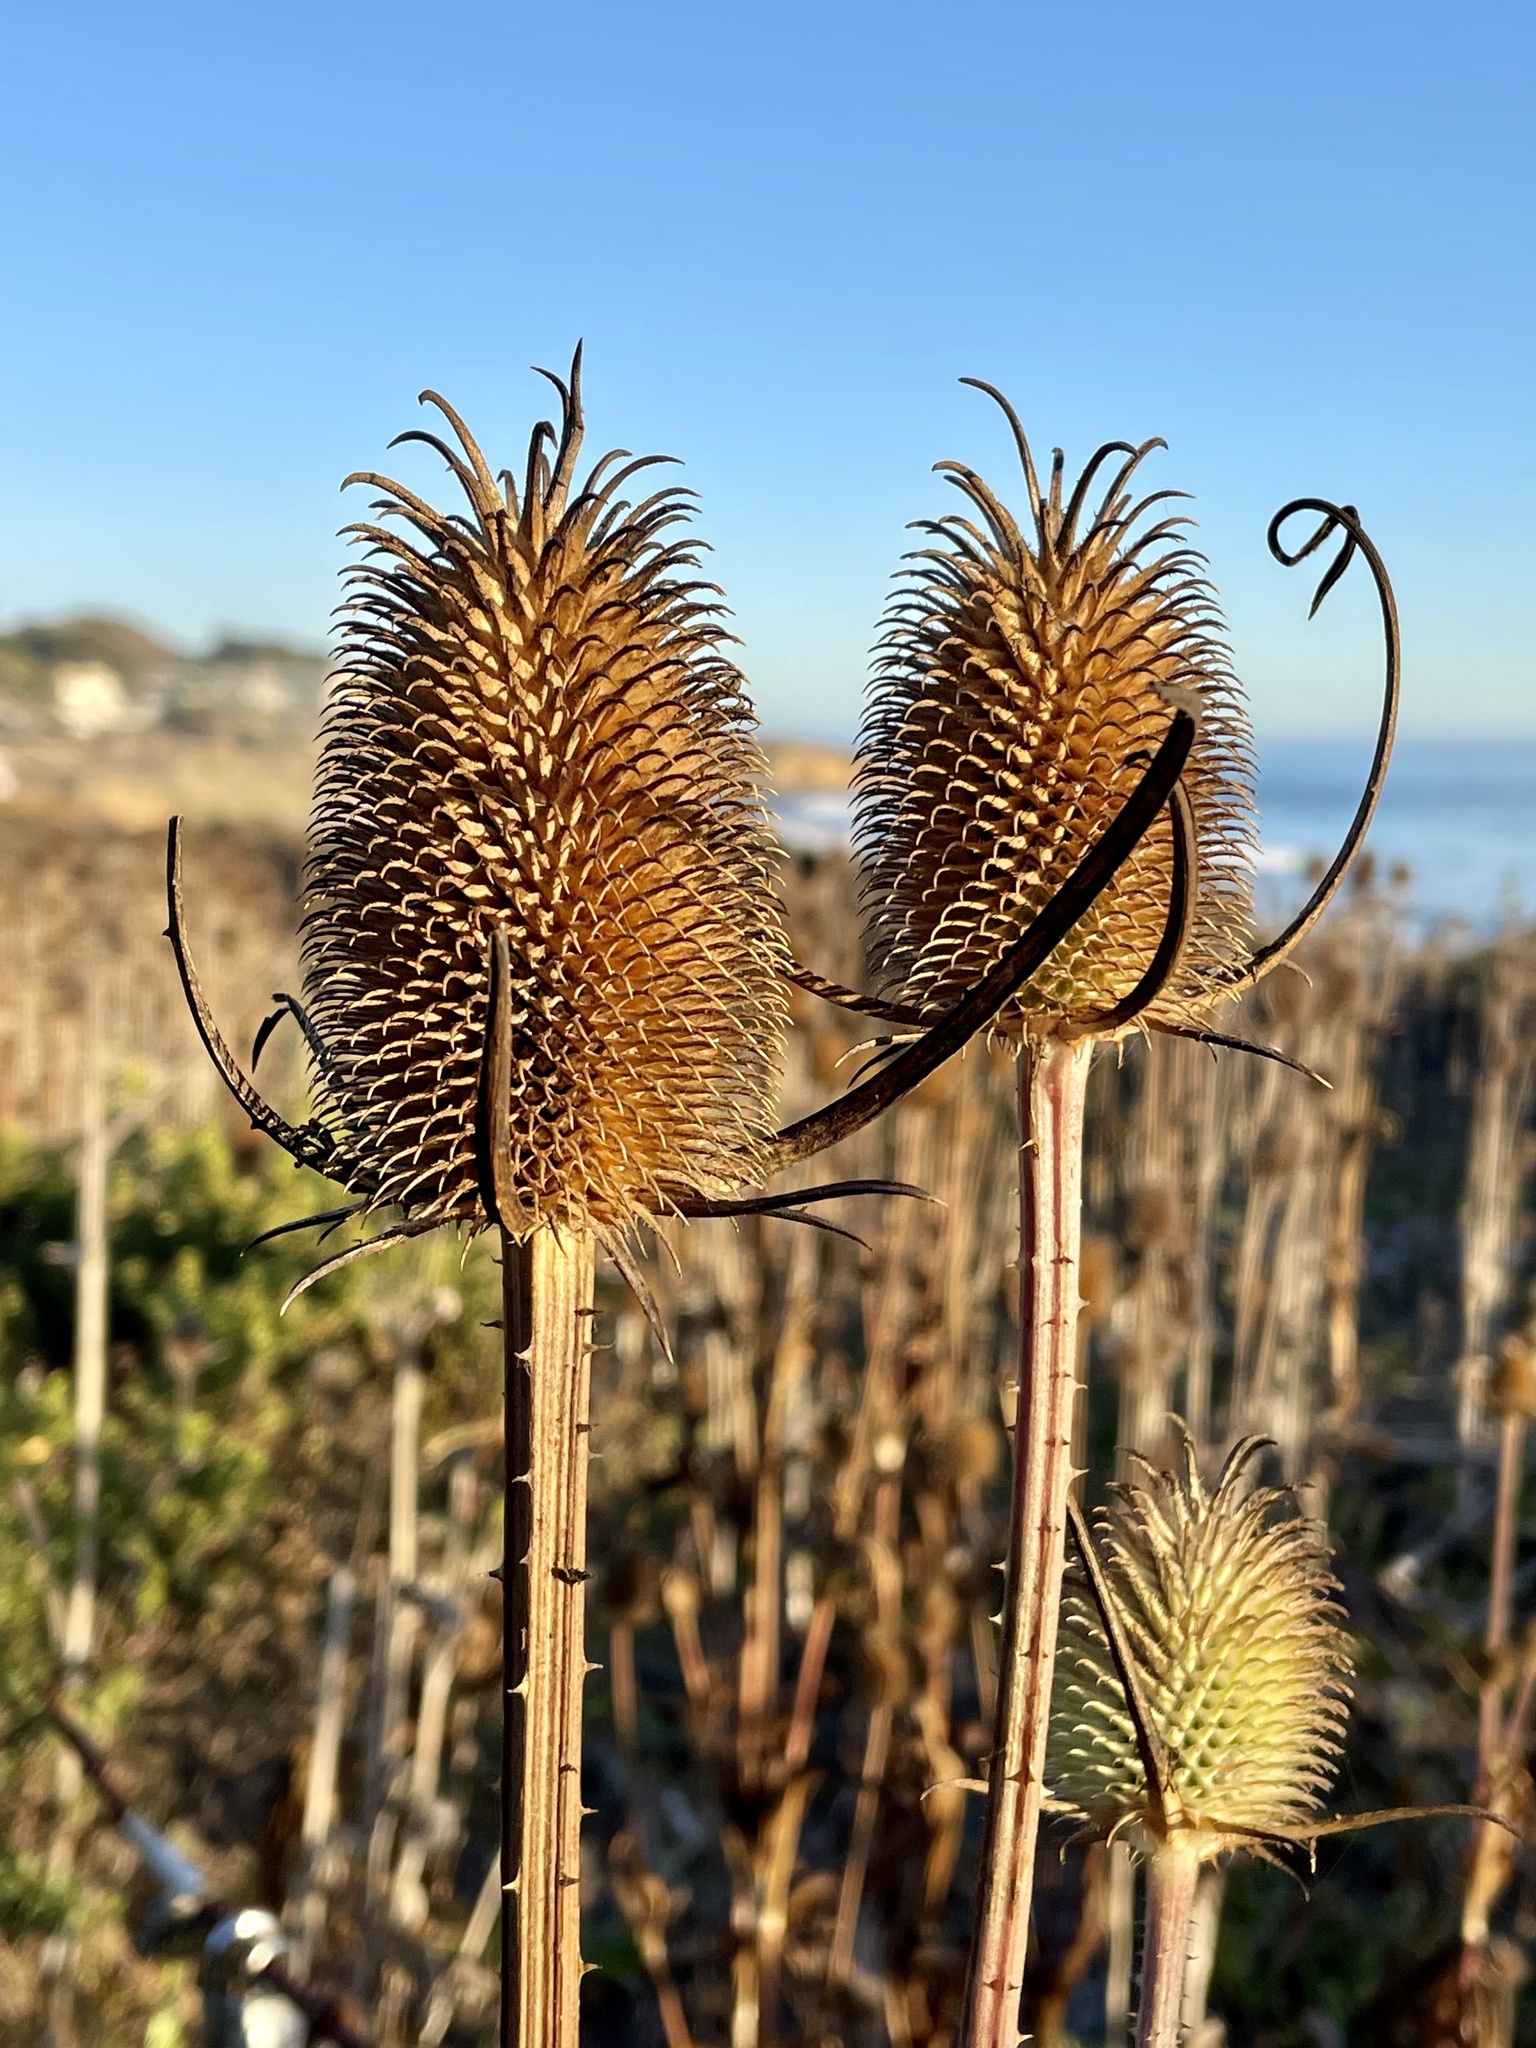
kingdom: Plantae
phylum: Tracheophyta
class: Magnoliopsida
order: Dipsacales
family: Caprifoliaceae
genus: Dipsacus
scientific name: Dipsacus sativus
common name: Fuller's teasel
